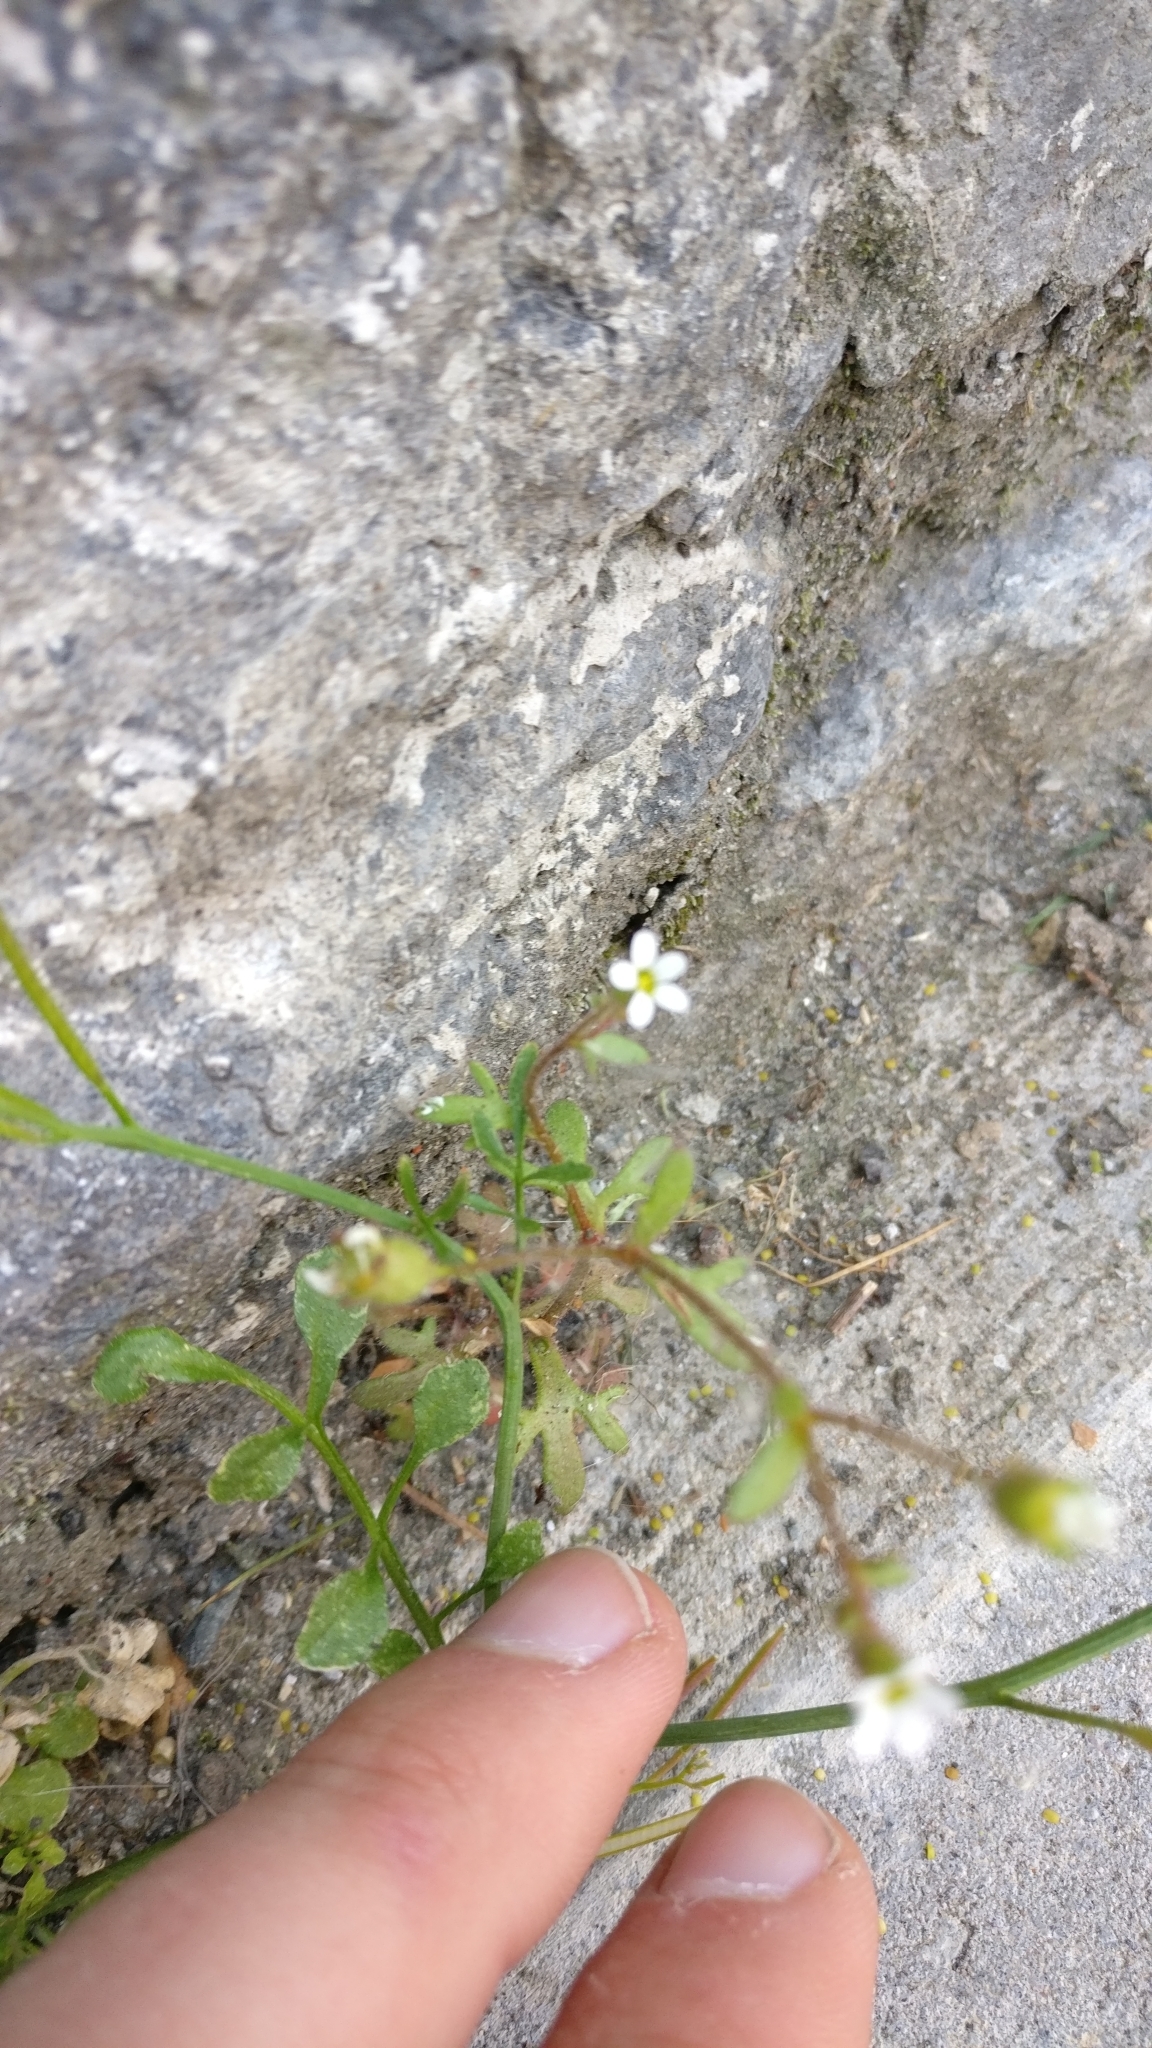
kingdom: Plantae
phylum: Tracheophyta
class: Magnoliopsida
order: Saxifragales
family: Saxifragaceae
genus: Saxifraga
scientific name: Saxifraga tridactylites
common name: Rue-leaved saxifrage
